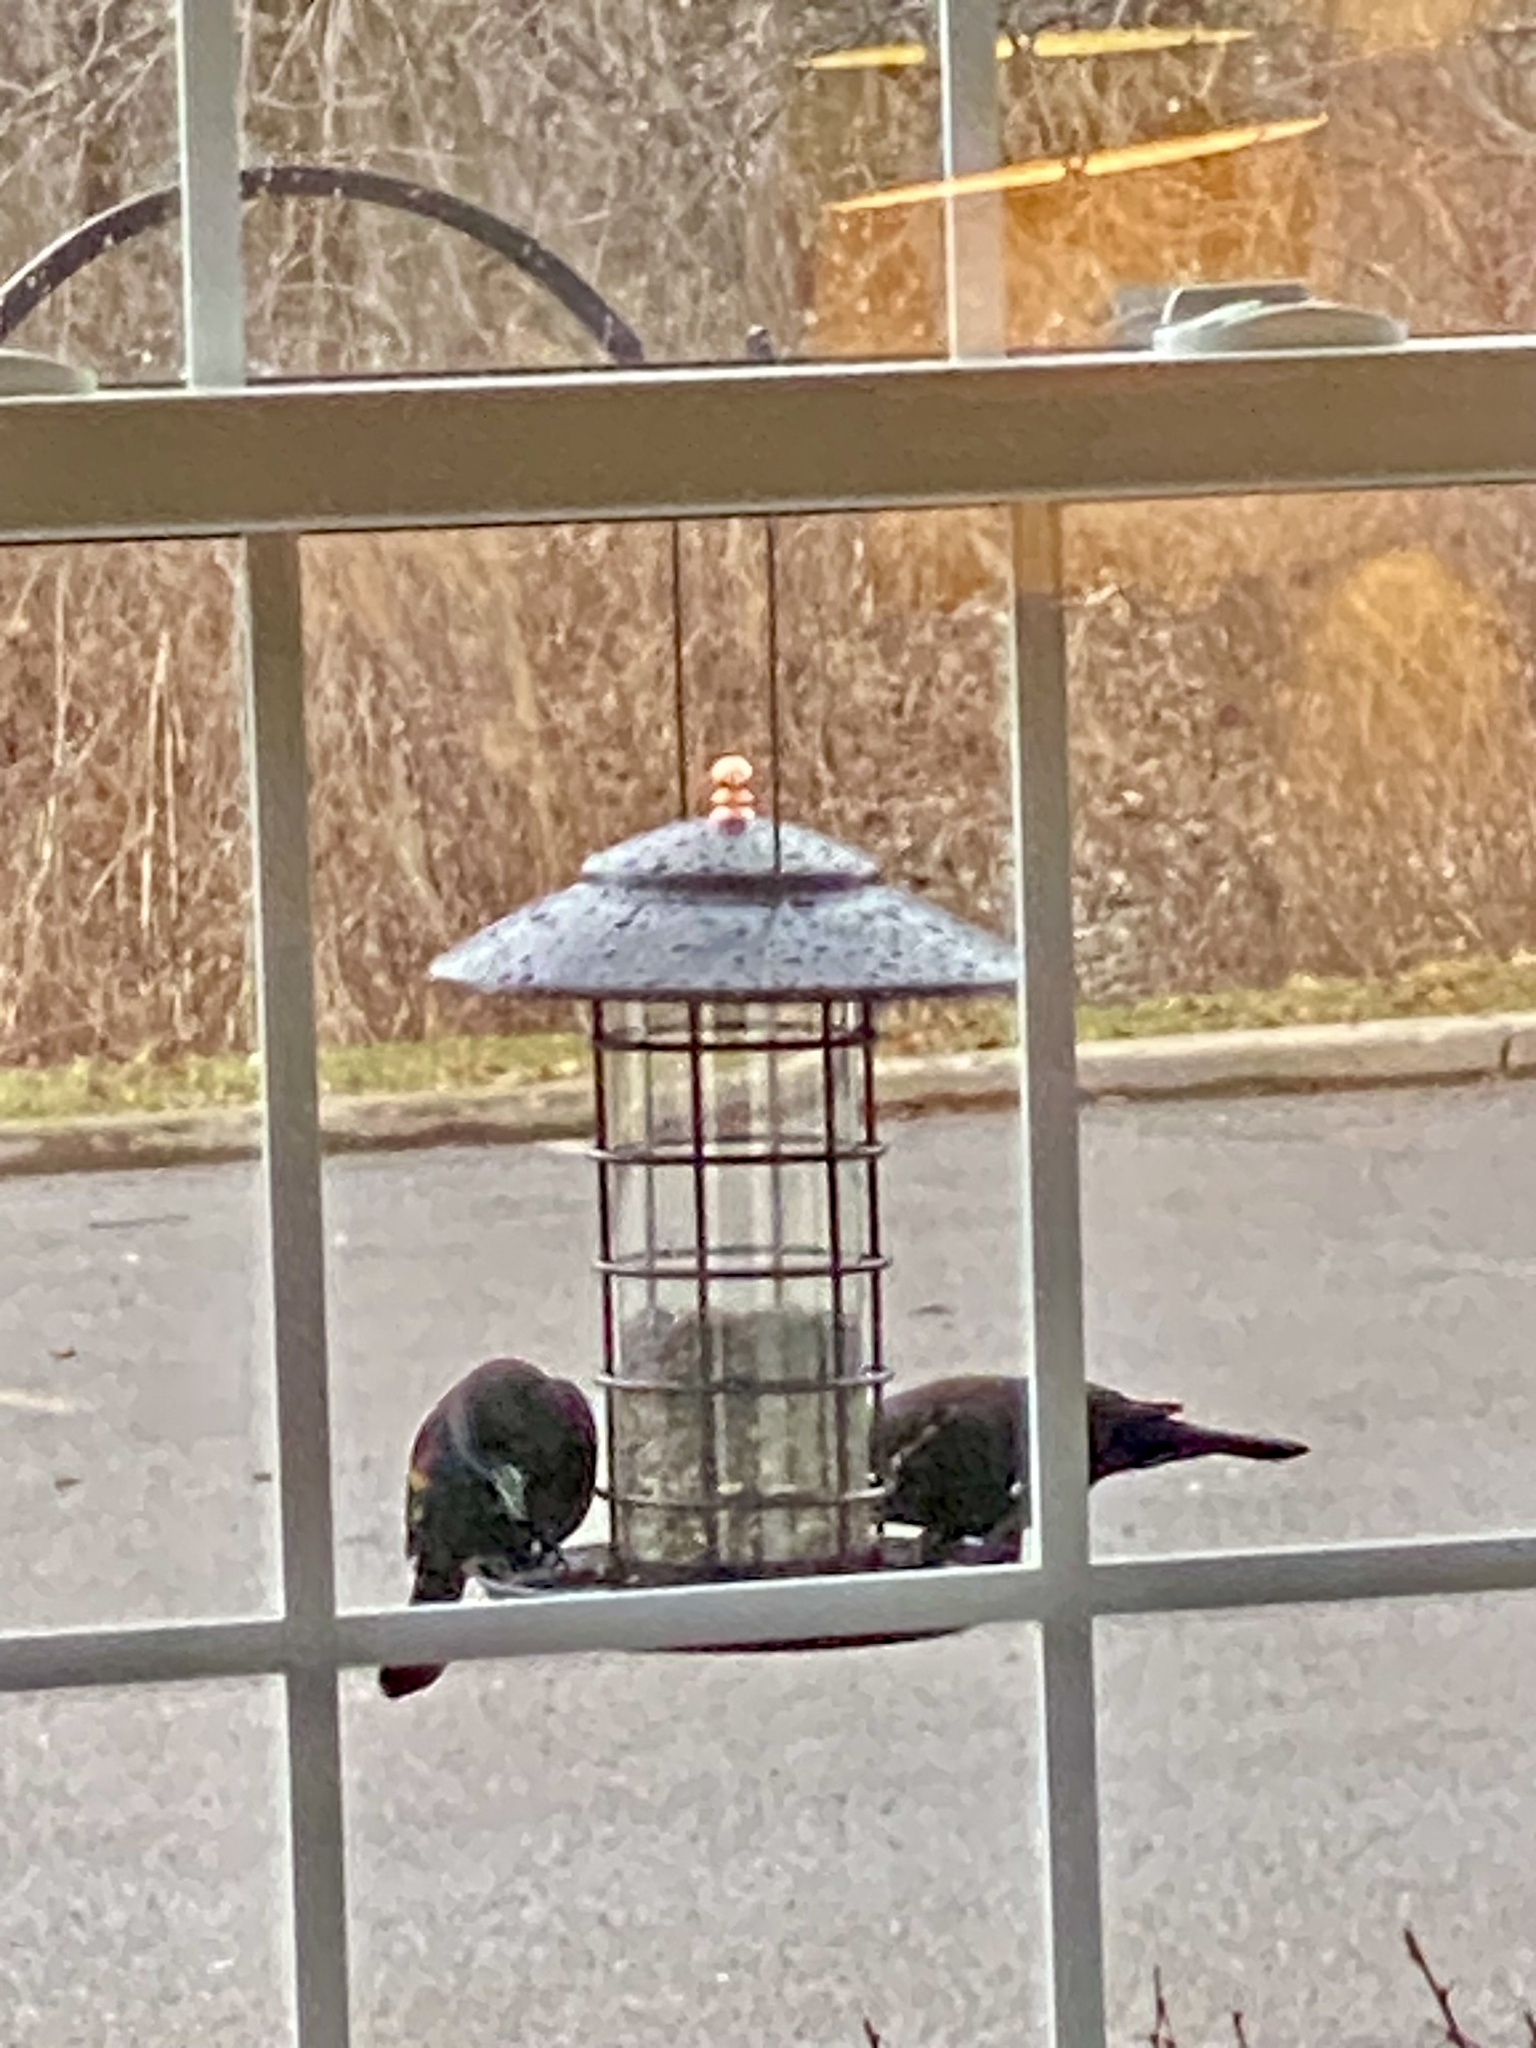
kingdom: Animalia
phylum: Chordata
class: Aves
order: Passeriformes
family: Icteridae
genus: Agelaius
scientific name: Agelaius phoeniceus
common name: Red-winged blackbird
